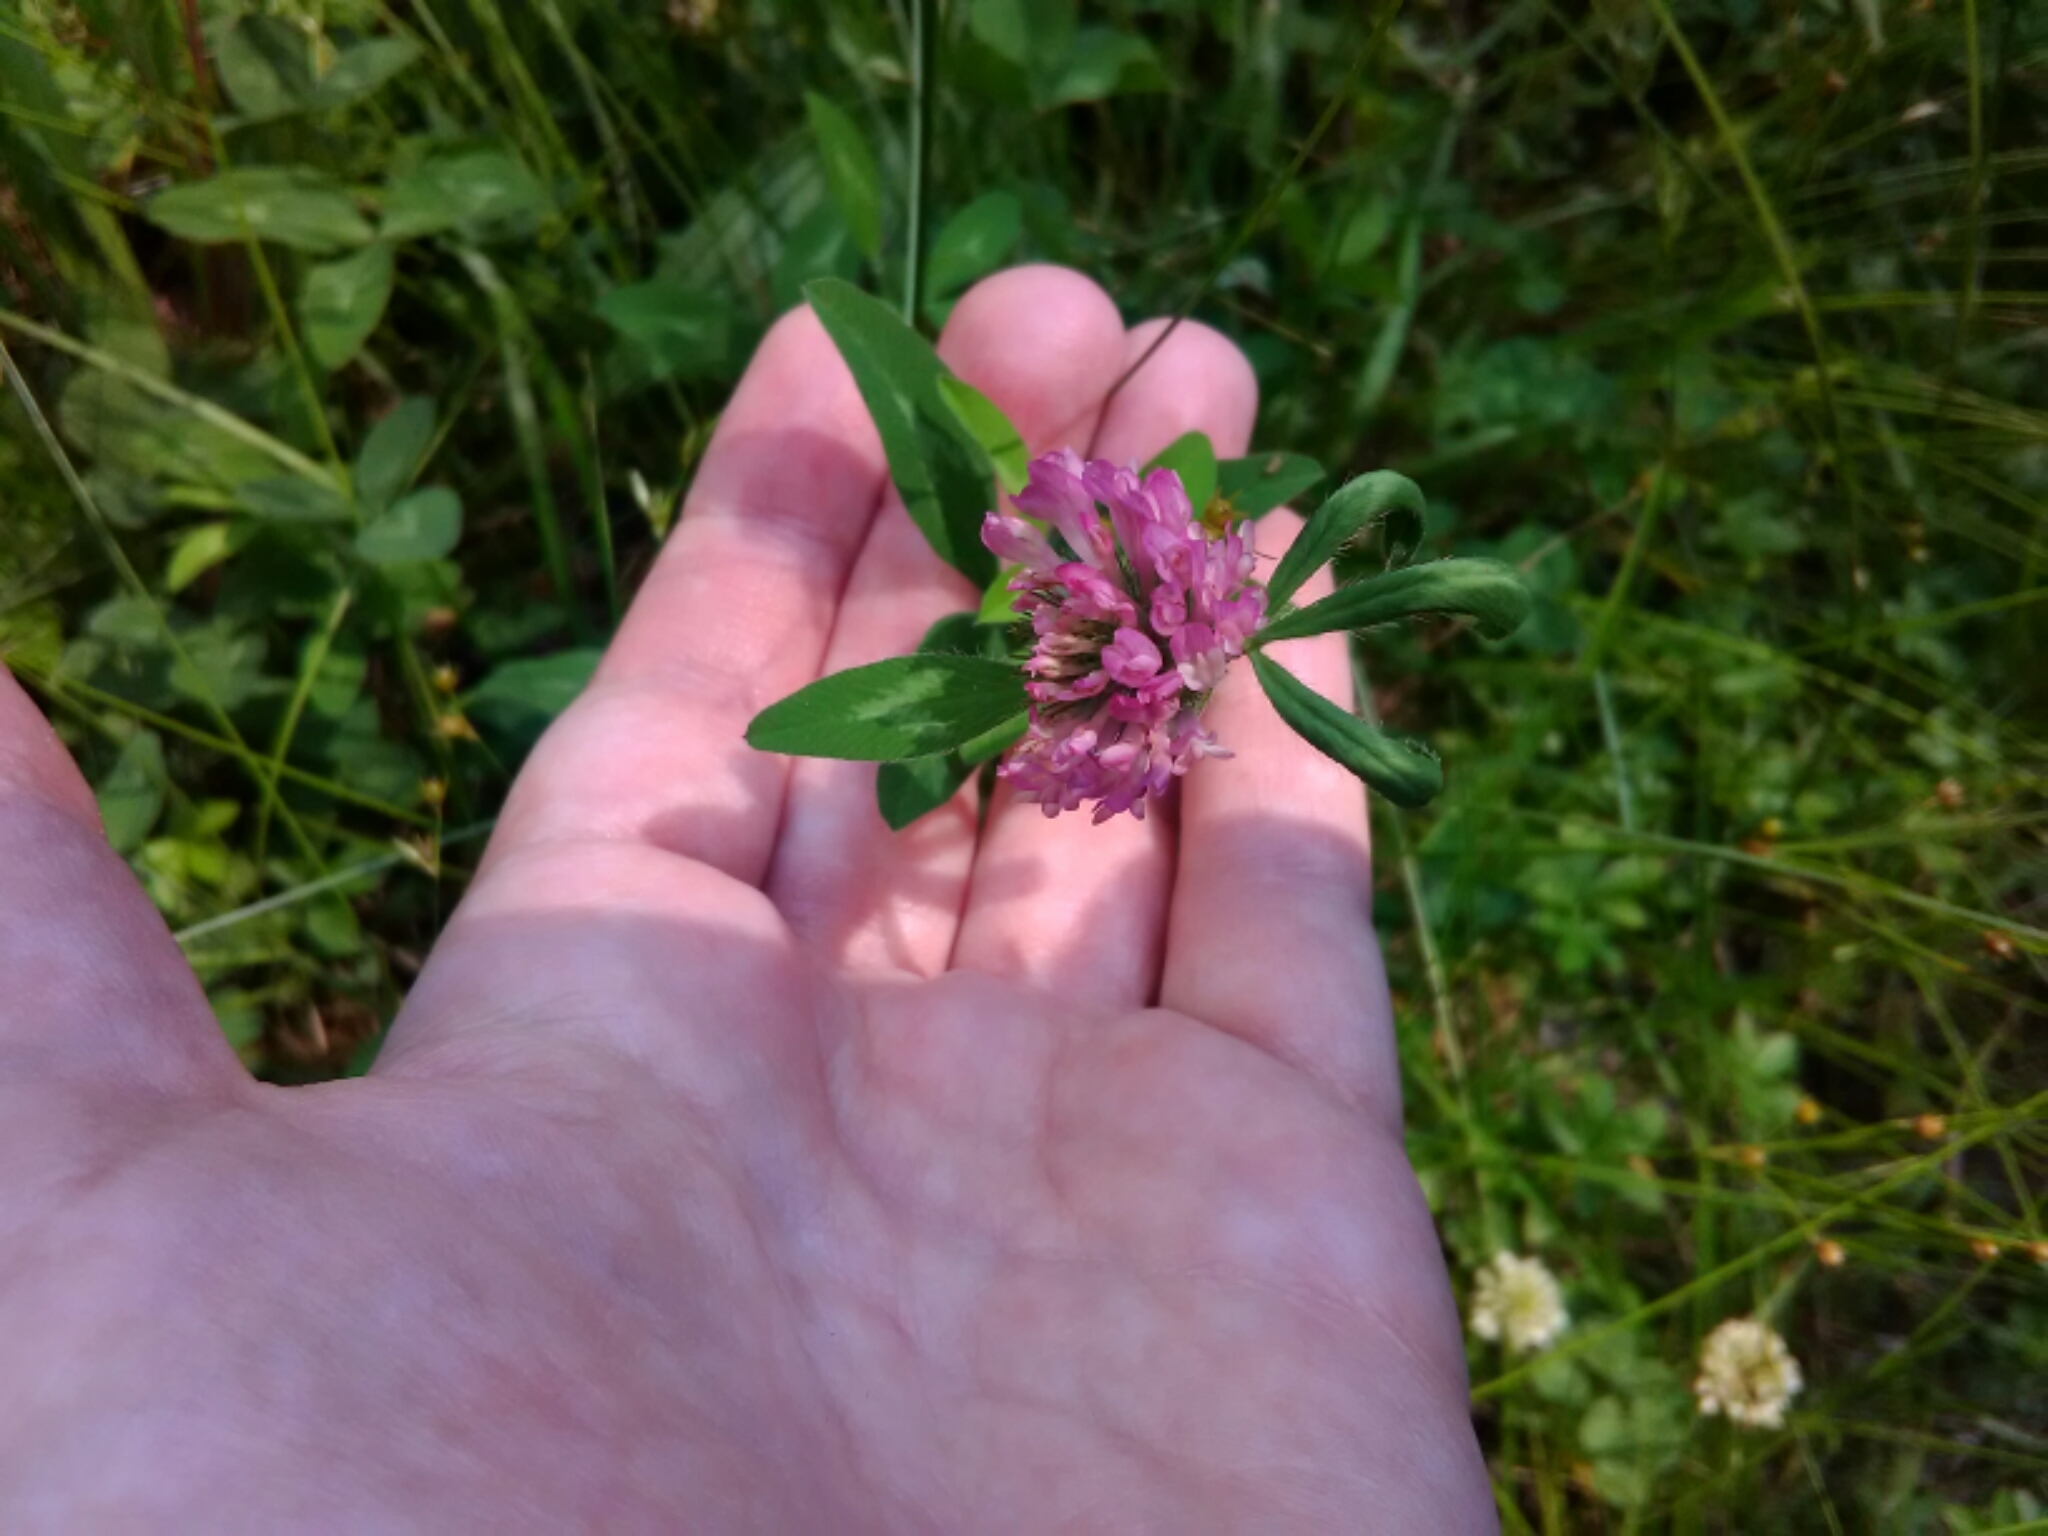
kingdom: Plantae
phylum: Tracheophyta
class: Magnoliopsida
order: Fabales
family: Fabaceae
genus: Trifolium
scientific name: Trifolium pratense
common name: Red clover
